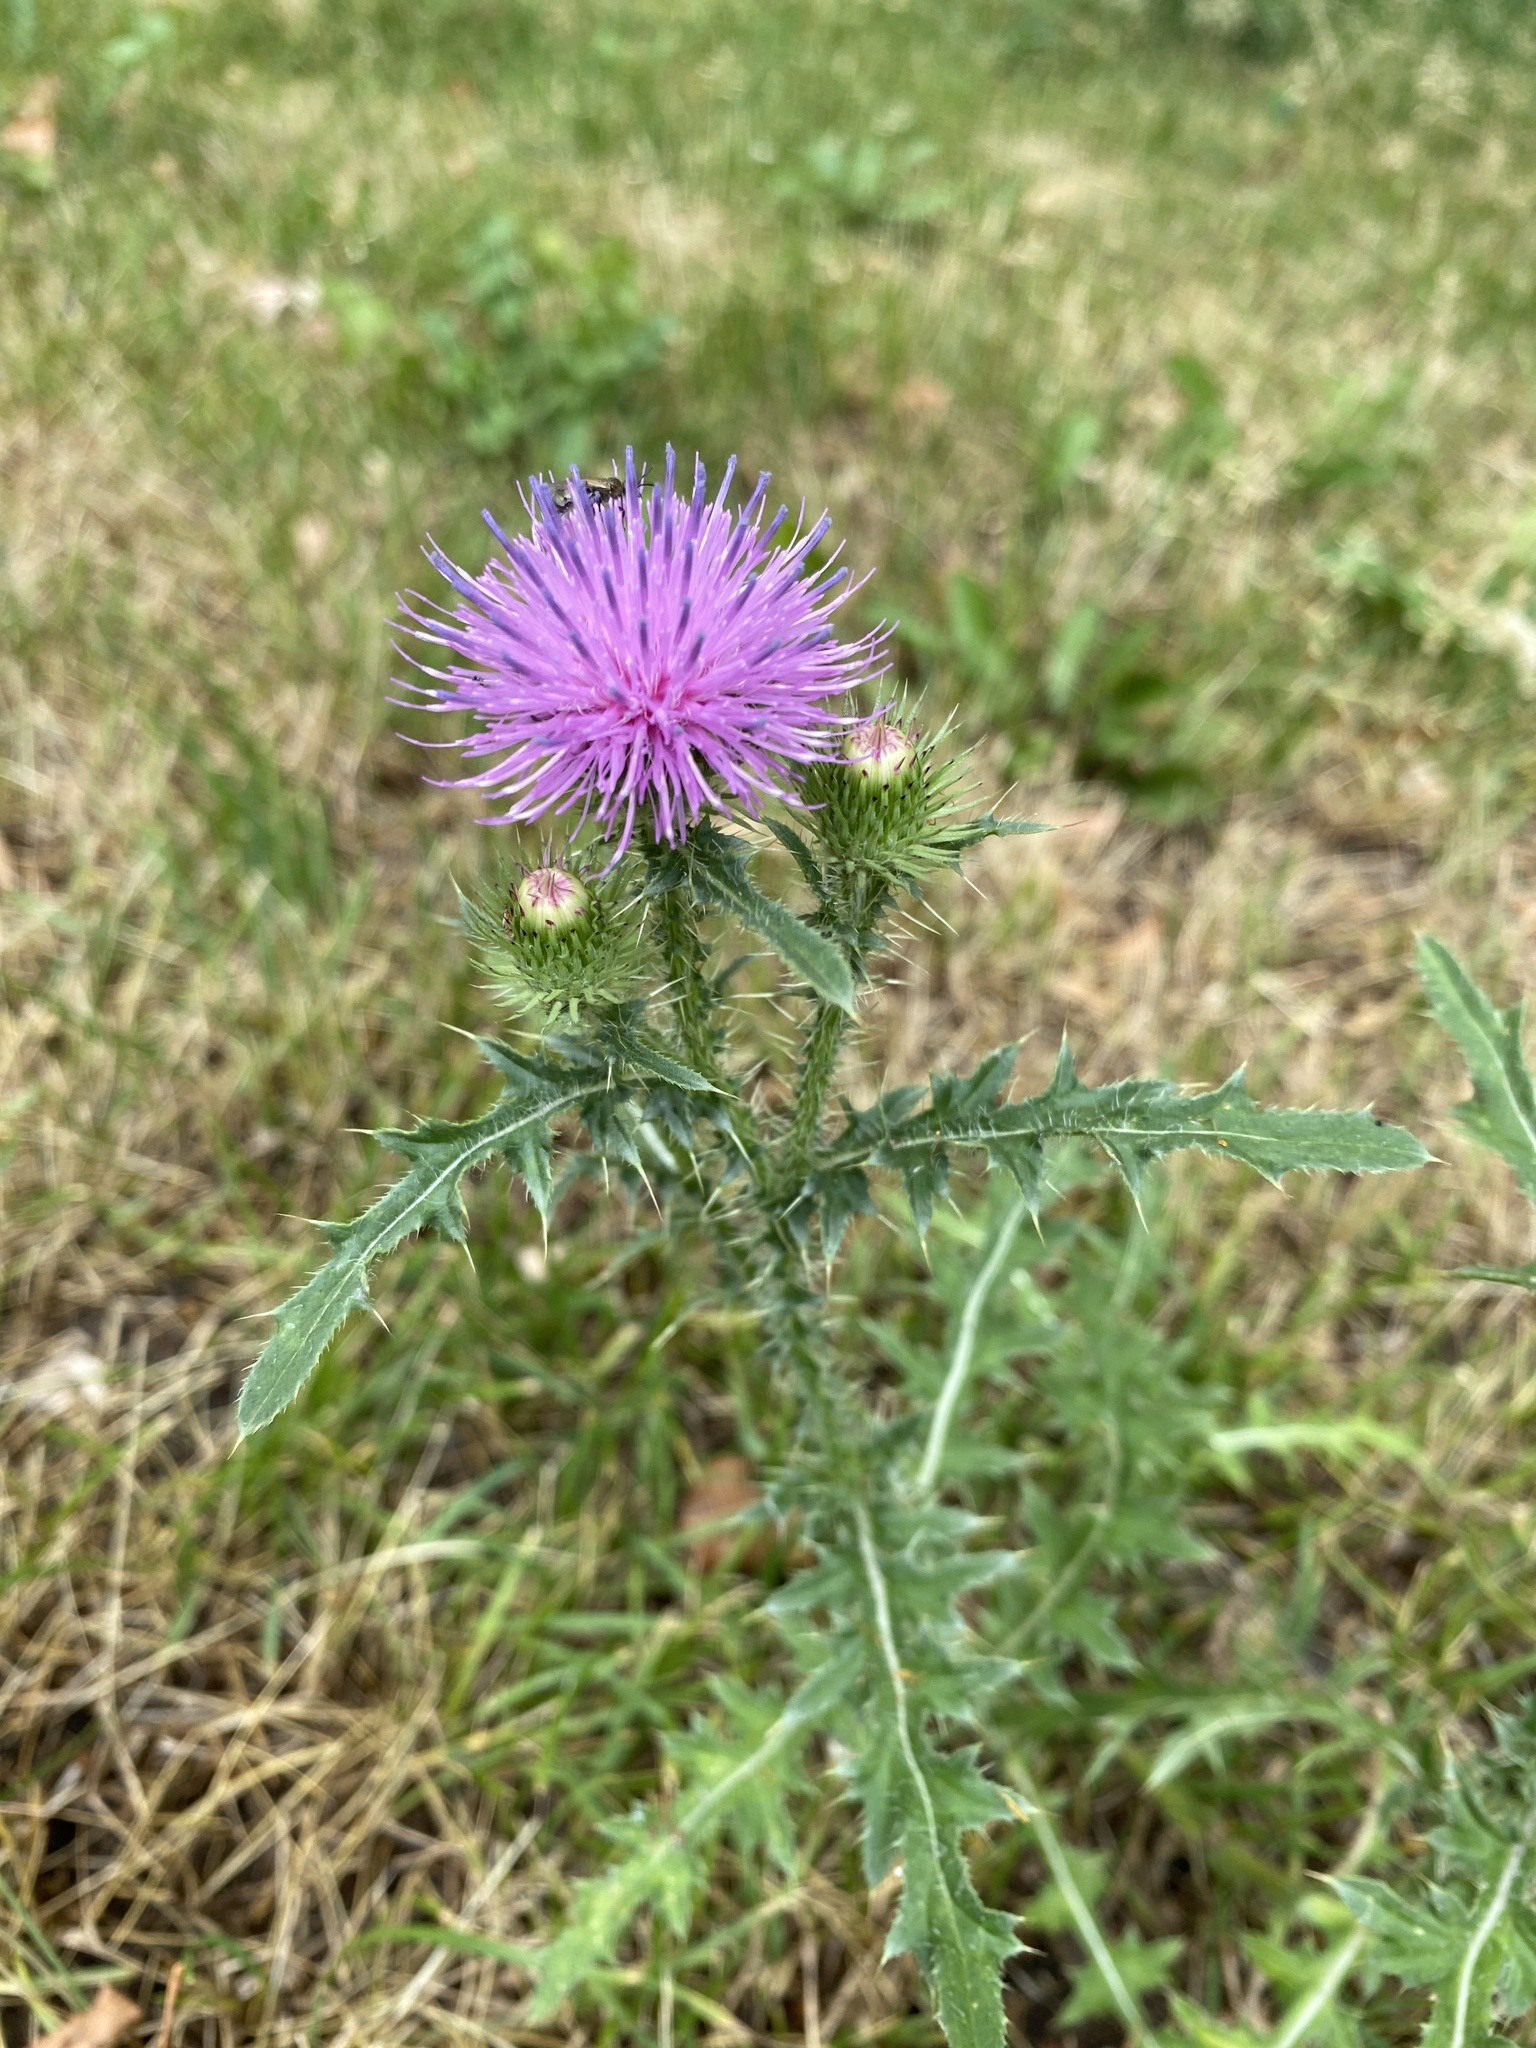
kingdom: Plantae
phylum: Tracheophyta
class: Magnoliopsida
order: Asterales
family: Asteraceae
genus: Carduus
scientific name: Carduus acanthoides
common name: Plumeless thistle
